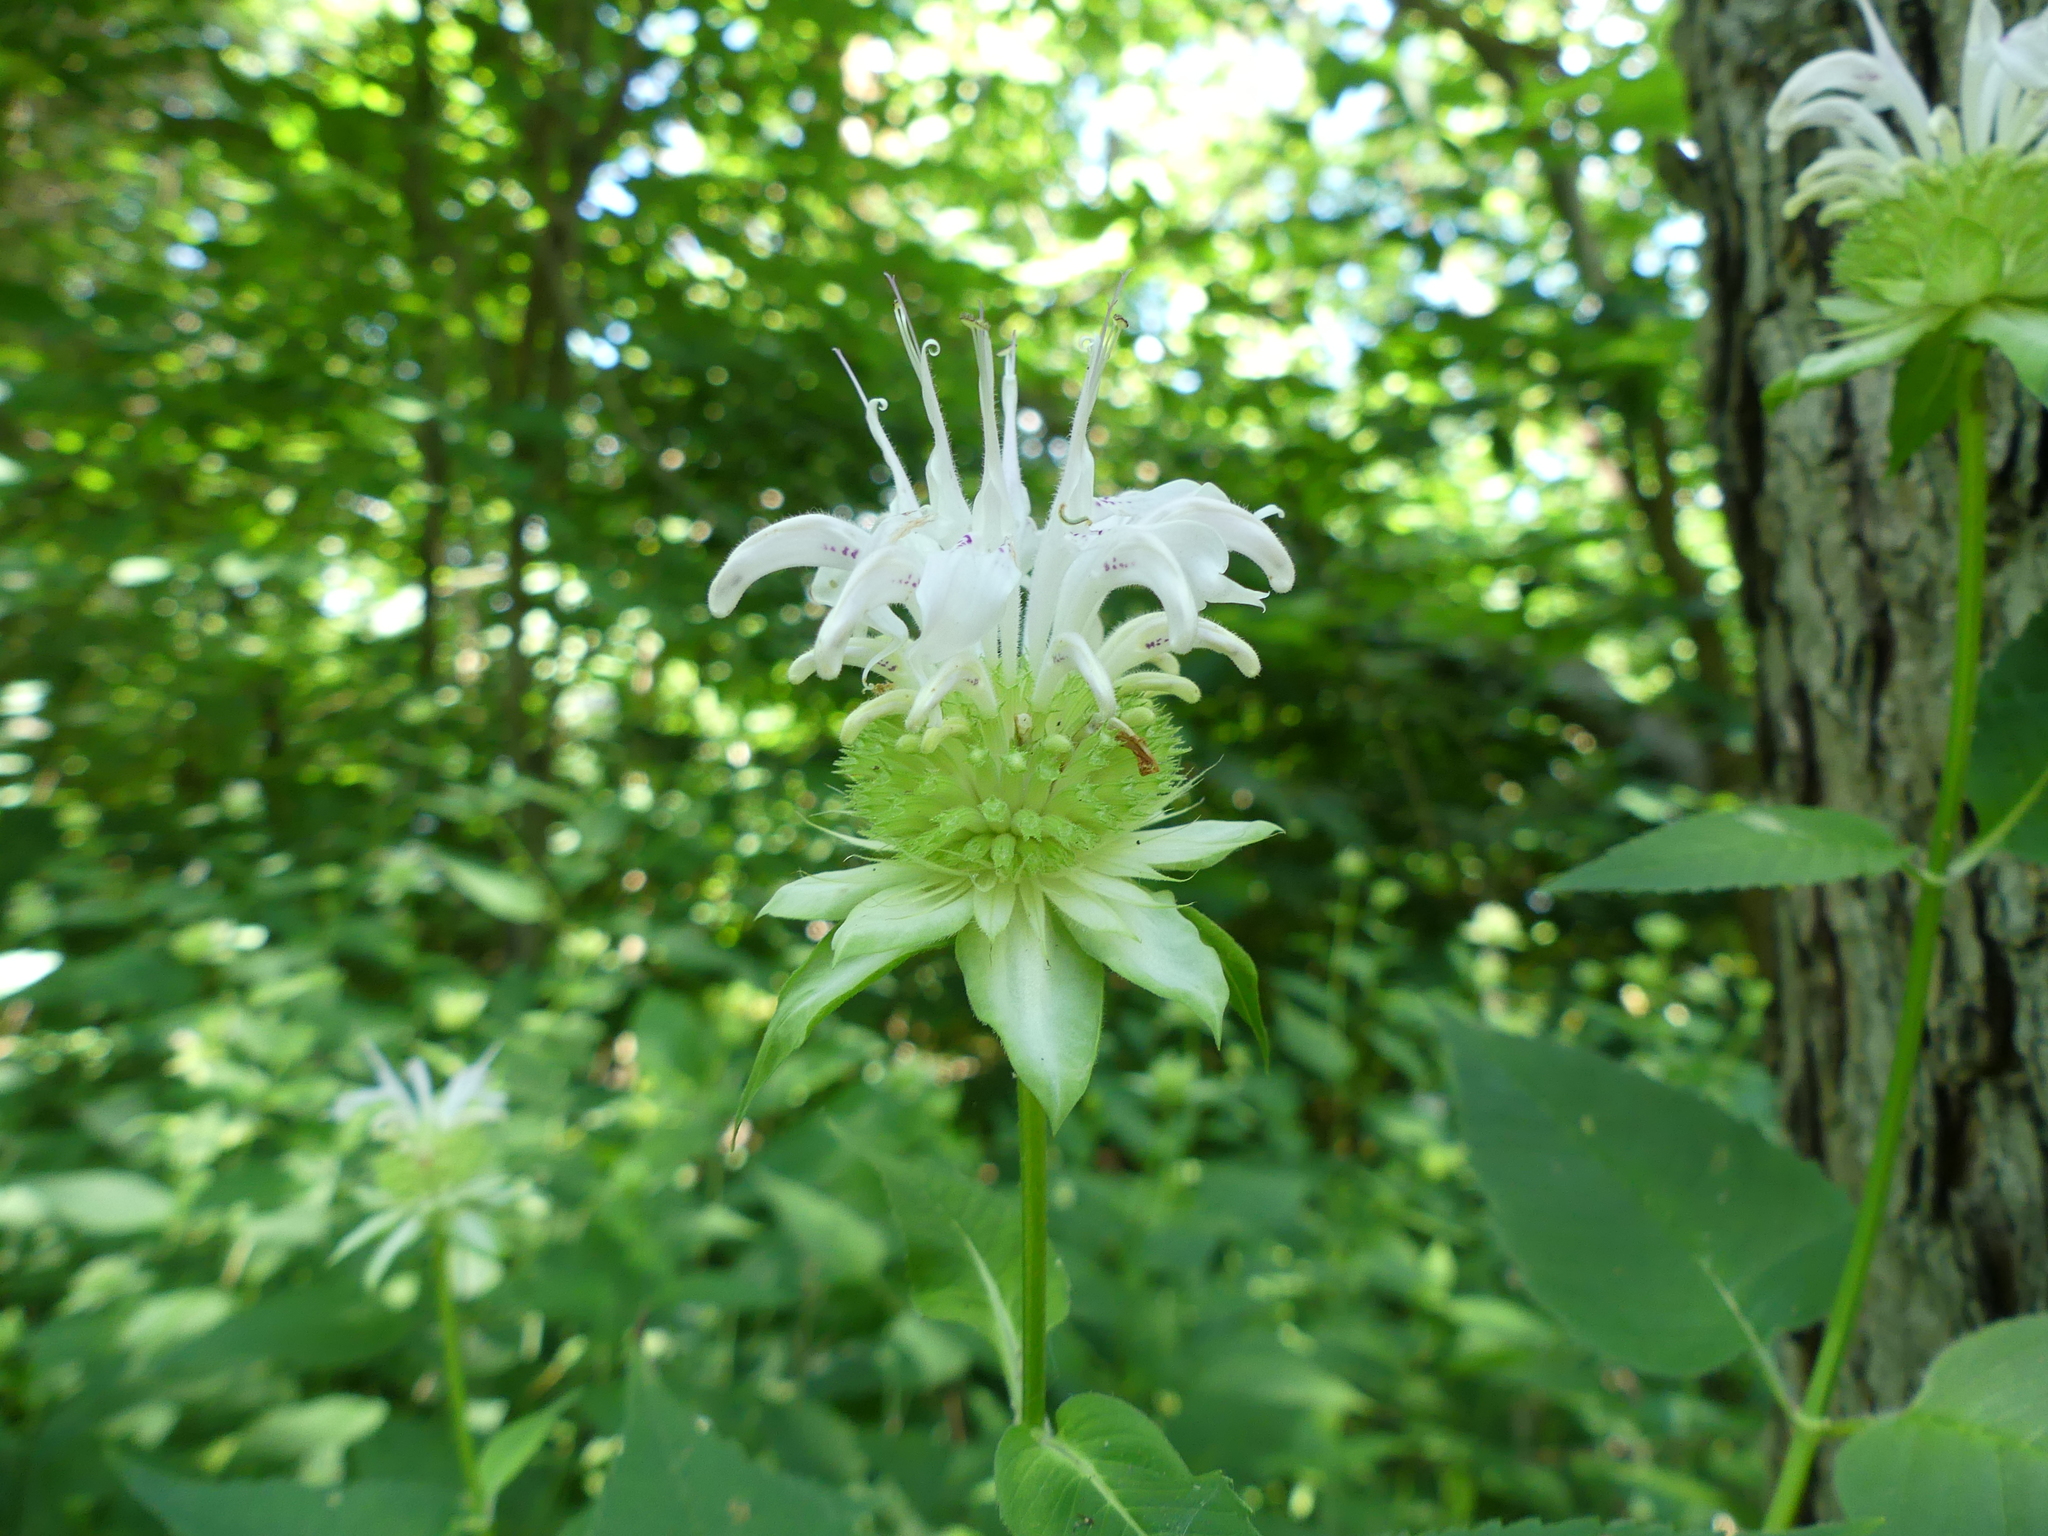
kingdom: Plantae
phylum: Tracheophyta
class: Magnoliopsida
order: Lamiales
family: Lamiaceae
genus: Monarda
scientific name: Monarda clinopodia
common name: Basil beebalm
